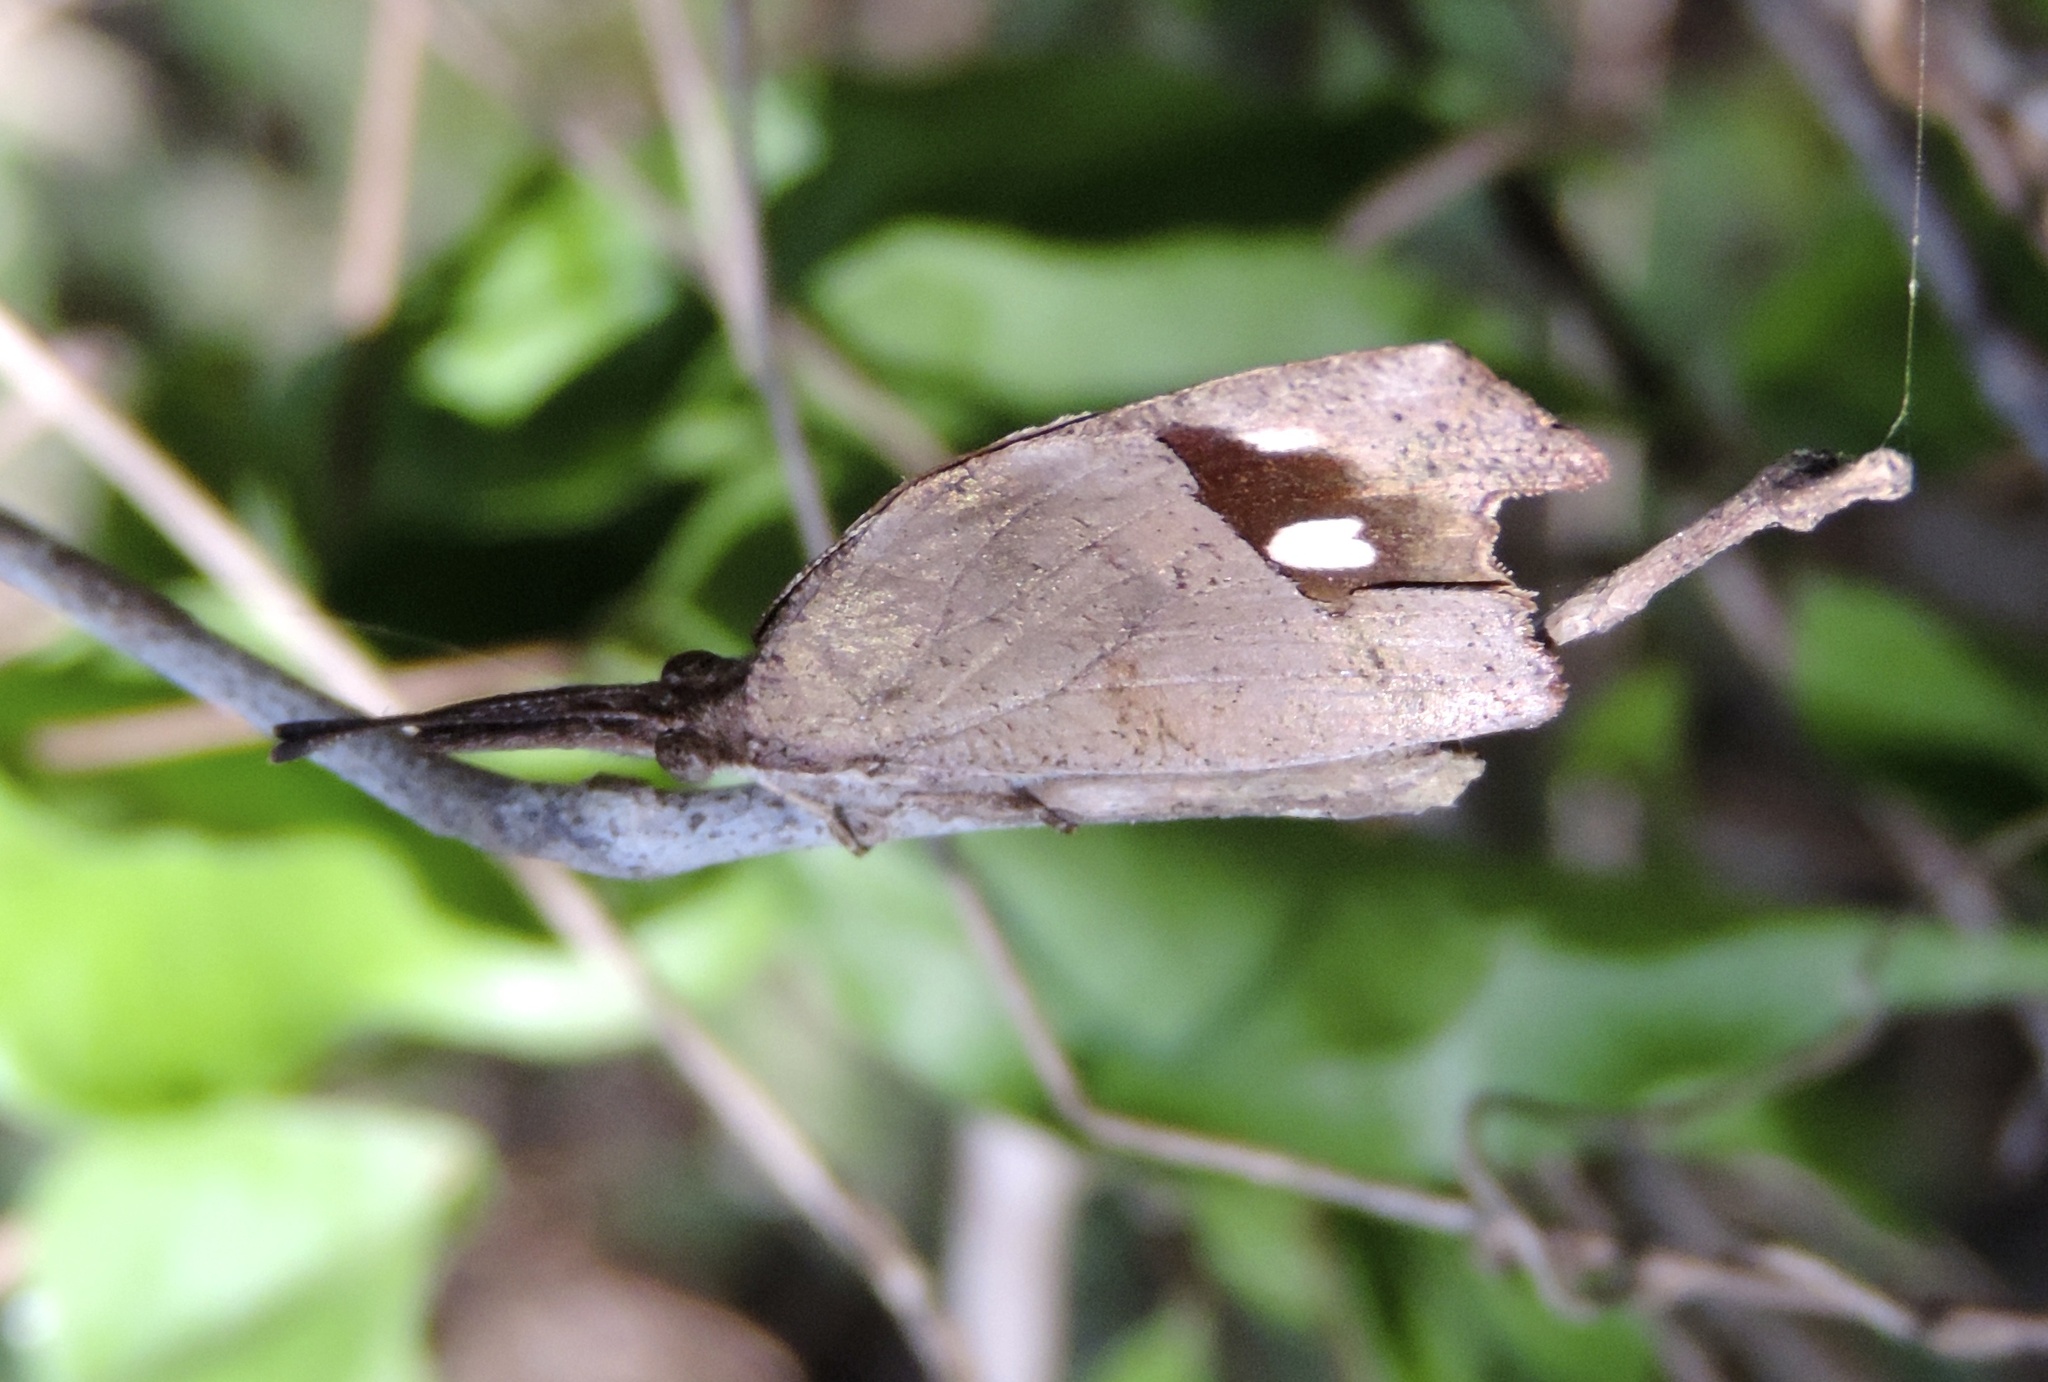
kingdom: Animalia
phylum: Arthropoda
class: Insecta
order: Lepidoptera
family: Nymphalidae
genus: Libytheana
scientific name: Libytheana carinenta
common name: American snout
